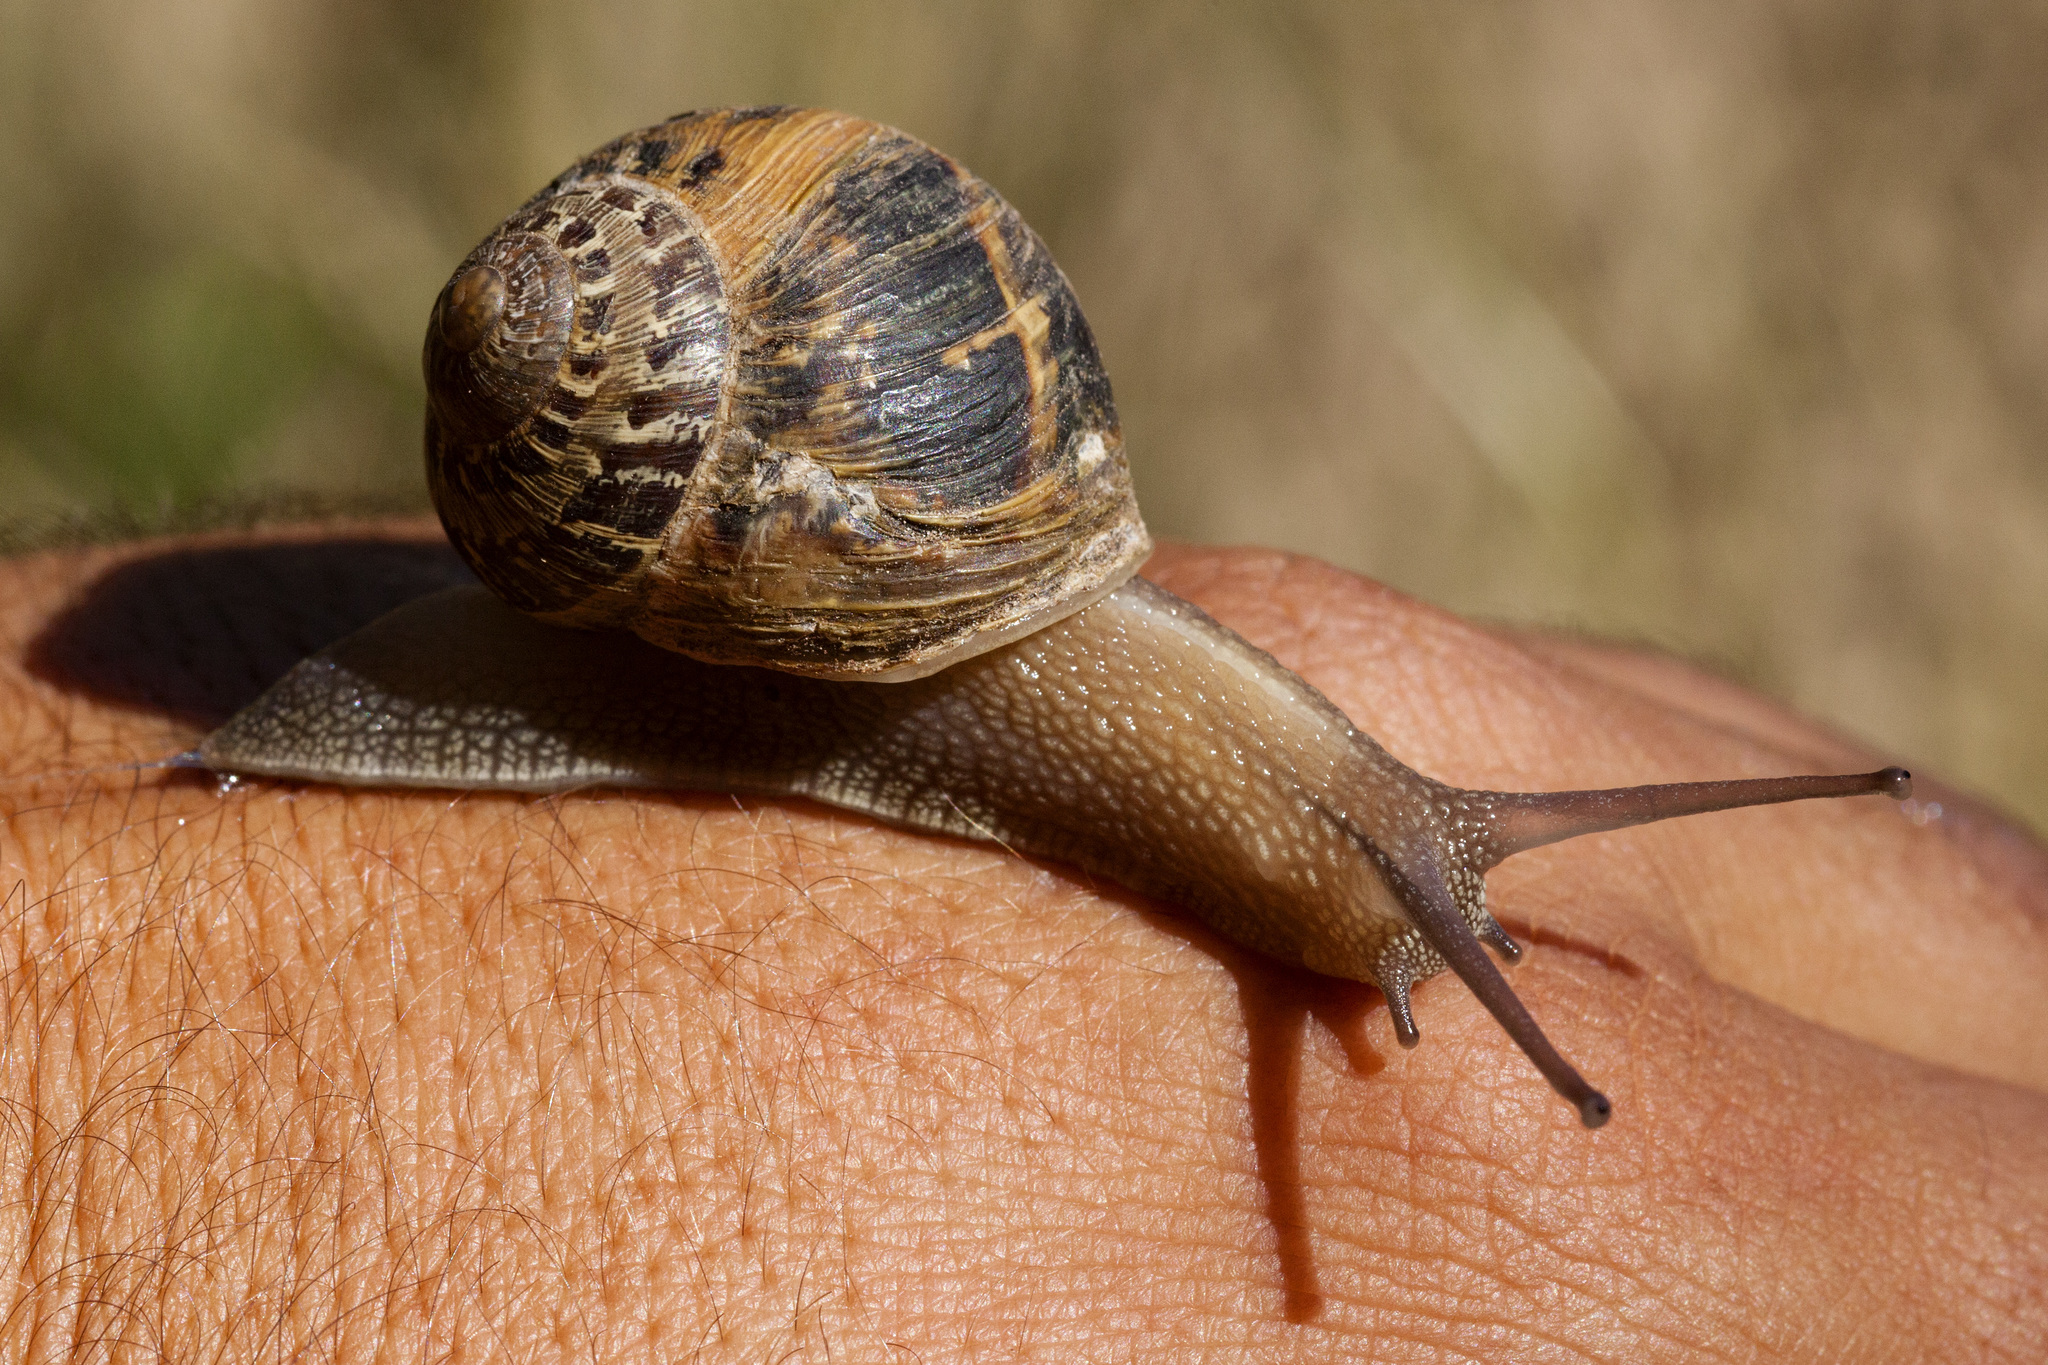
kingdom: Animalia
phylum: Mollusca
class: Gastropoda
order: Stylommatophora
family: Helicidae
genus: Cornu
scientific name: Cornu aspersum
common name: Brown garden snail
